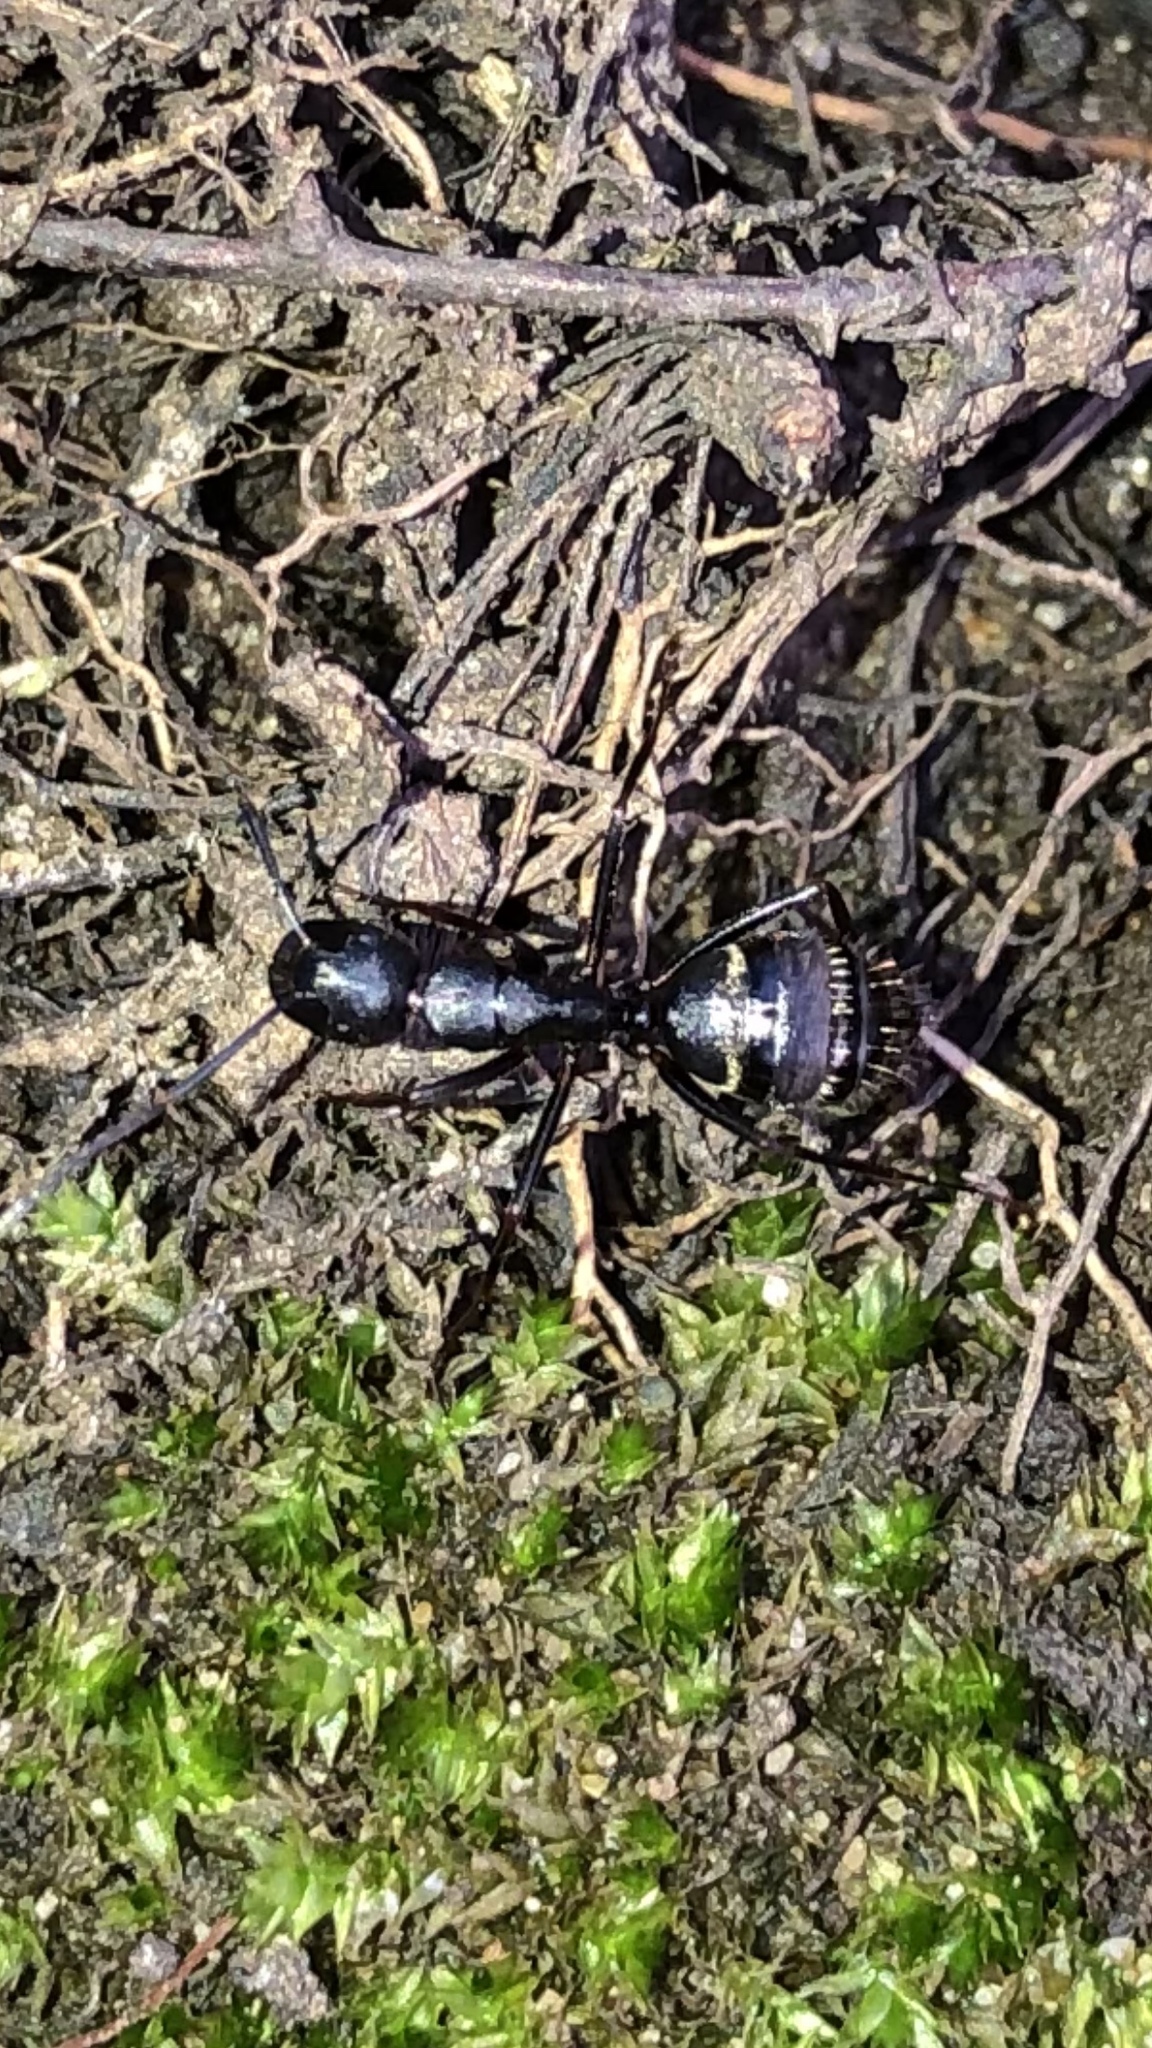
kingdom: Animalia
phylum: Arthropoda
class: Insecta
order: Hymenoptera
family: Formicidae
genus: Camponotus
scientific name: Camponotus pennsylvanicus
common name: Black carpenter ant
